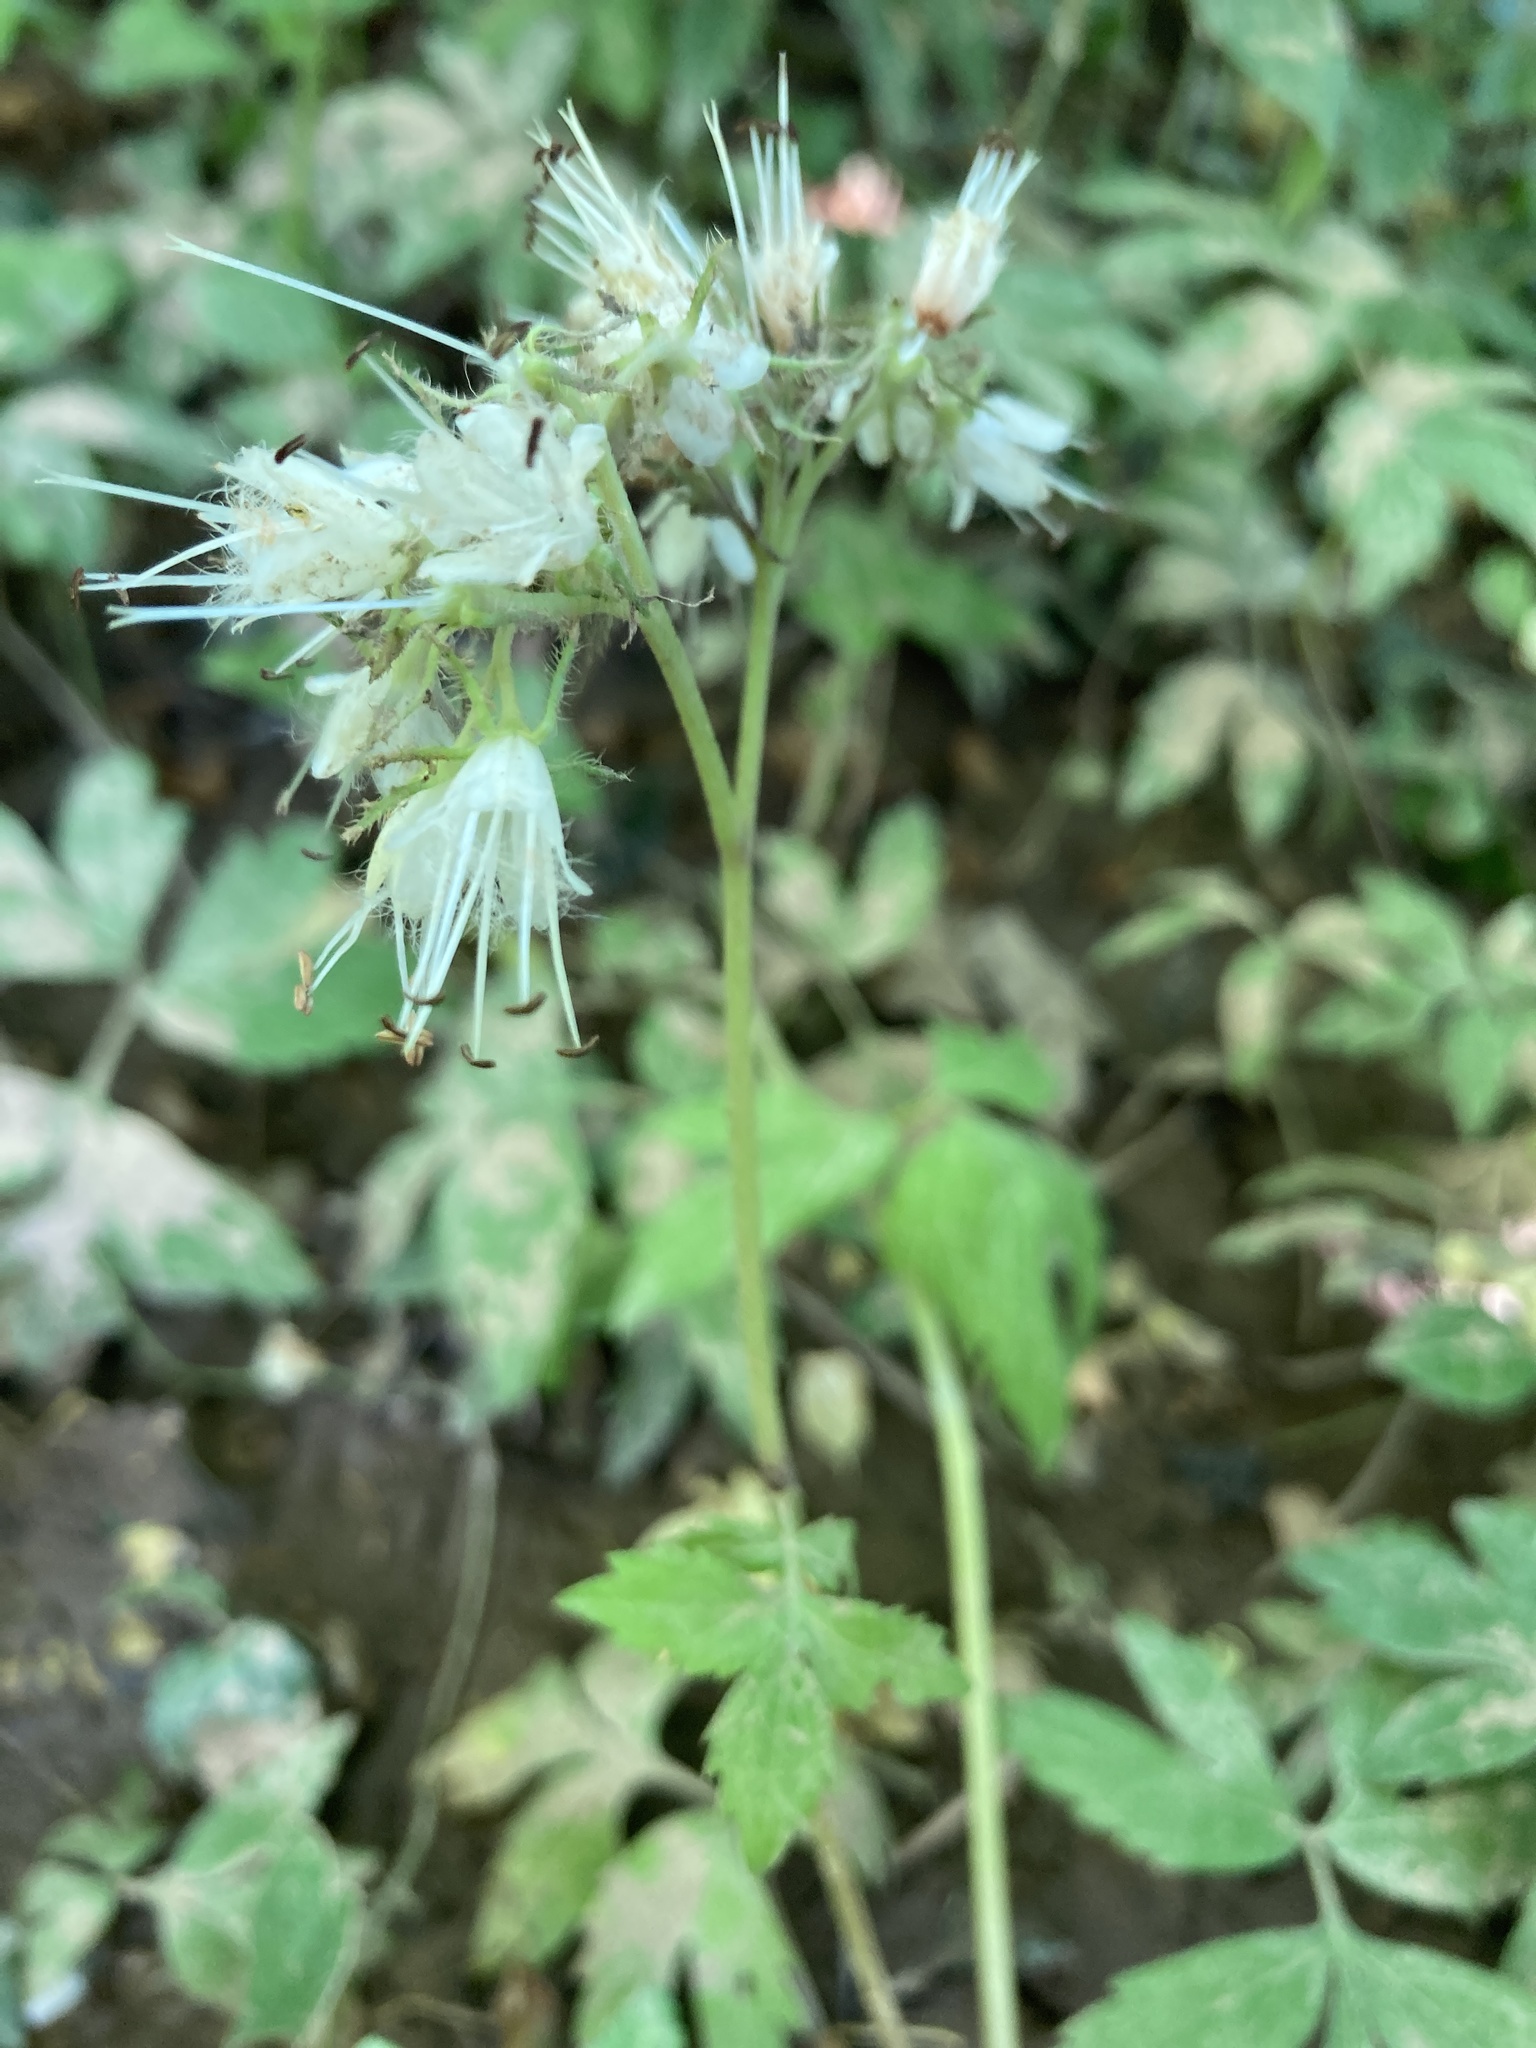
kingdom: Plantae
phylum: Tracheophyta
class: Magnoliopsida
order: Boraginales
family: Hydrophyllaceae
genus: Hydrophyllum
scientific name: Hydrophyllum virginianum
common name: Virginia waterleaf
